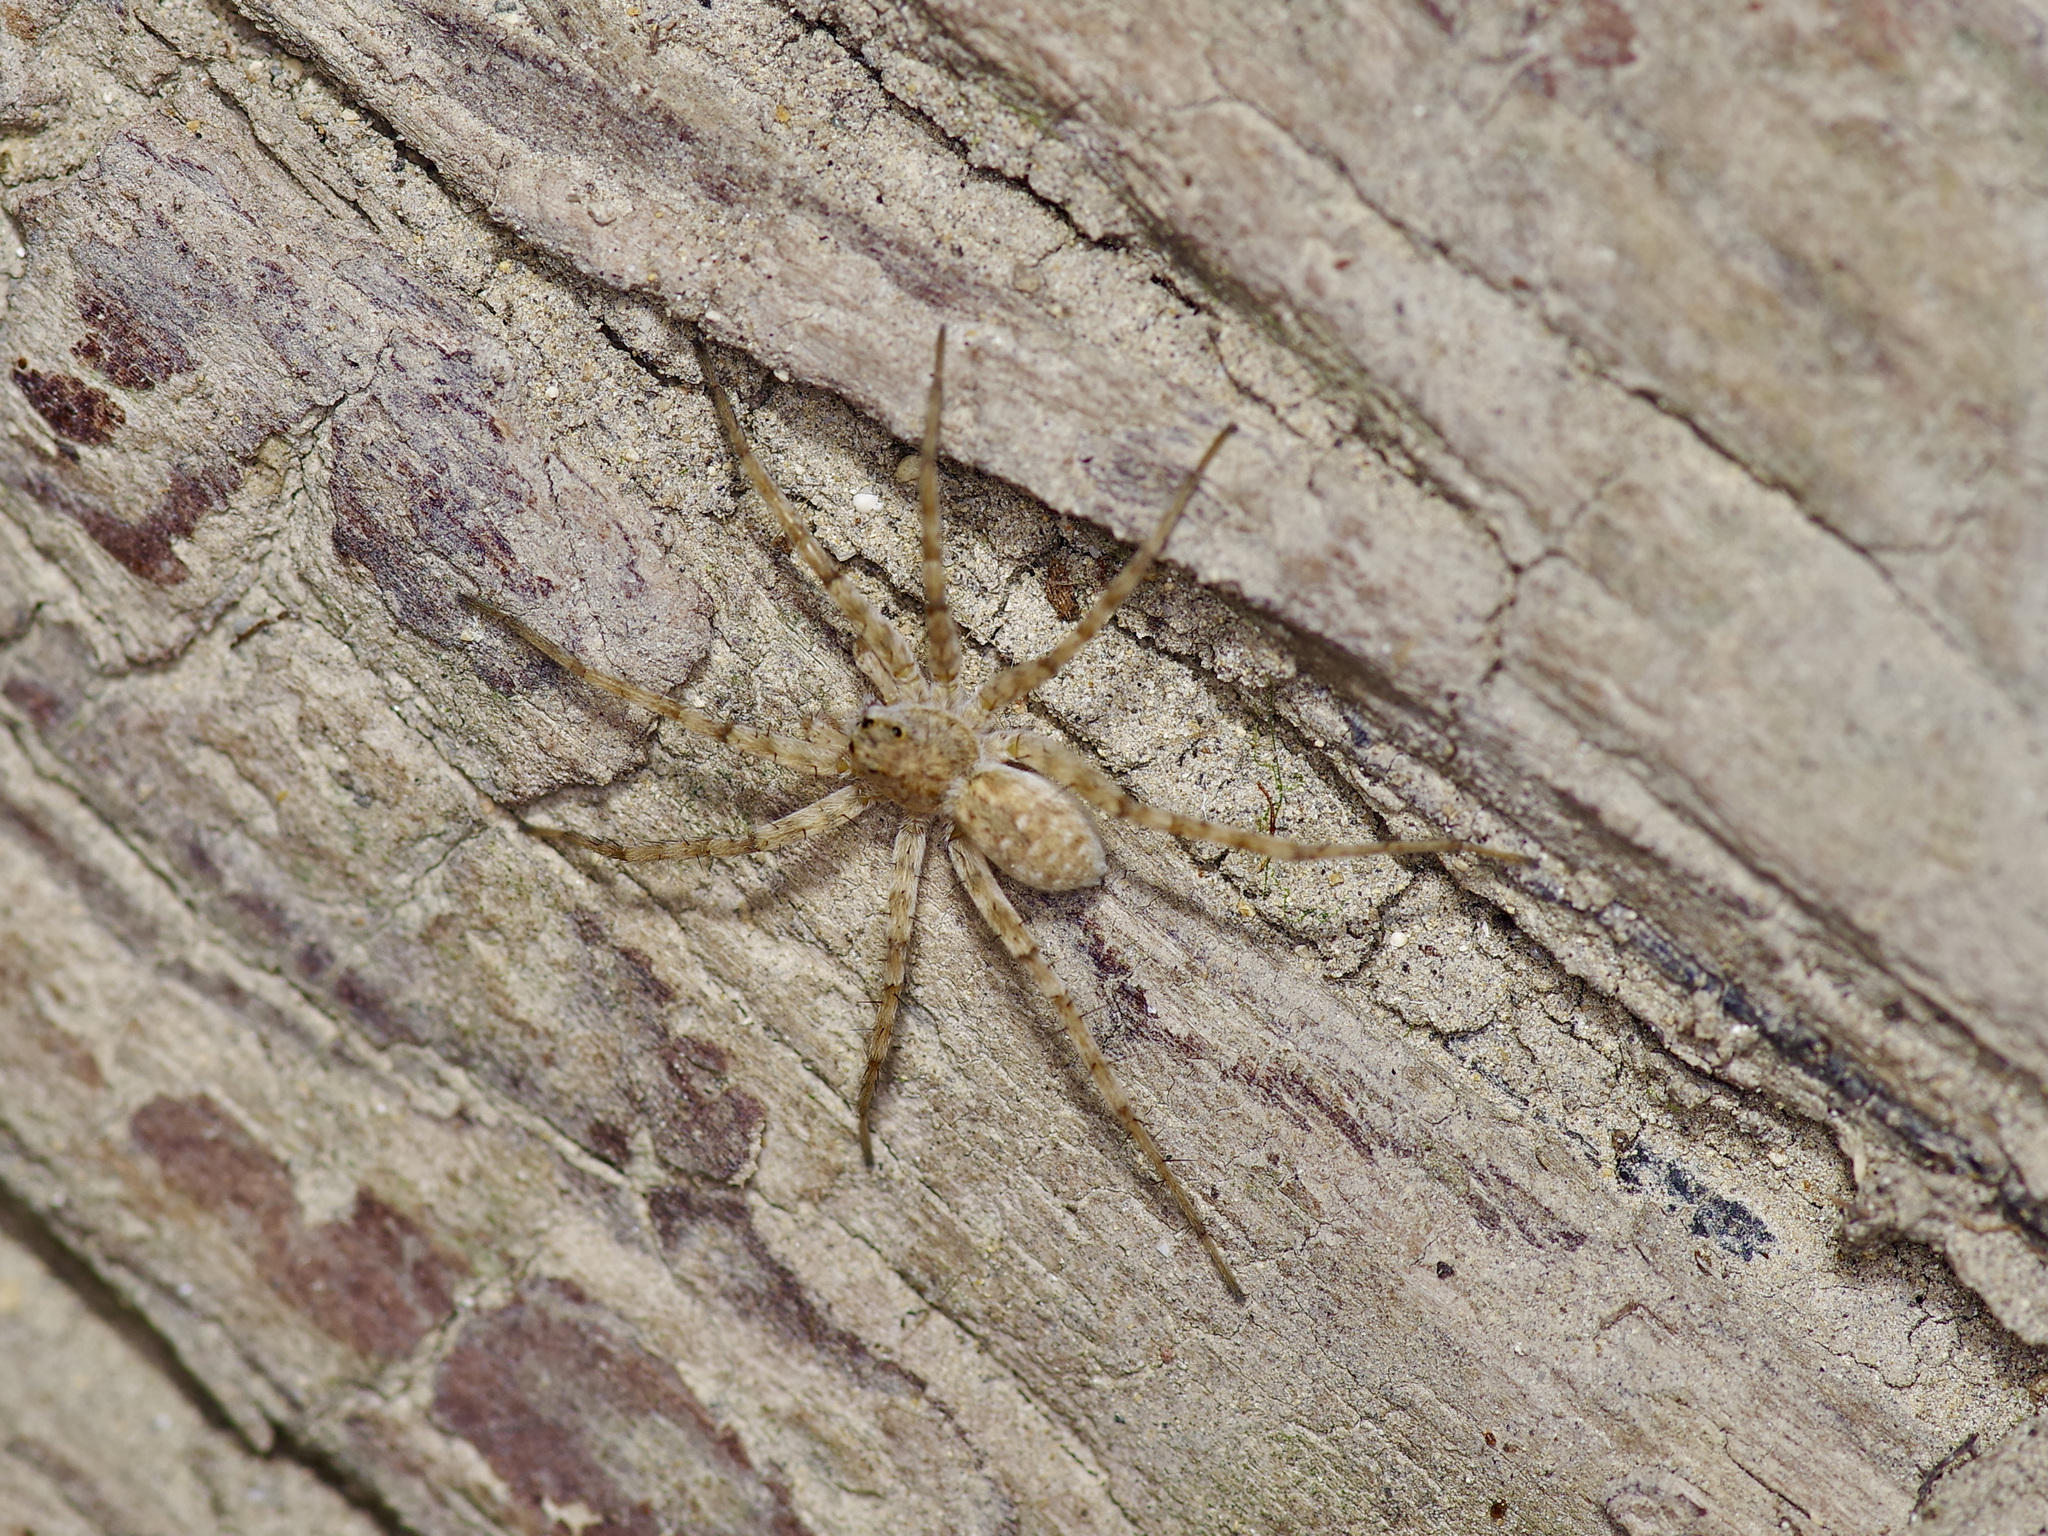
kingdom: Animalia
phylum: Arthropoda
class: Arachnida
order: Araneae
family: Lycosidae
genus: Pardosa
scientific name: Pardosa mercurialis
